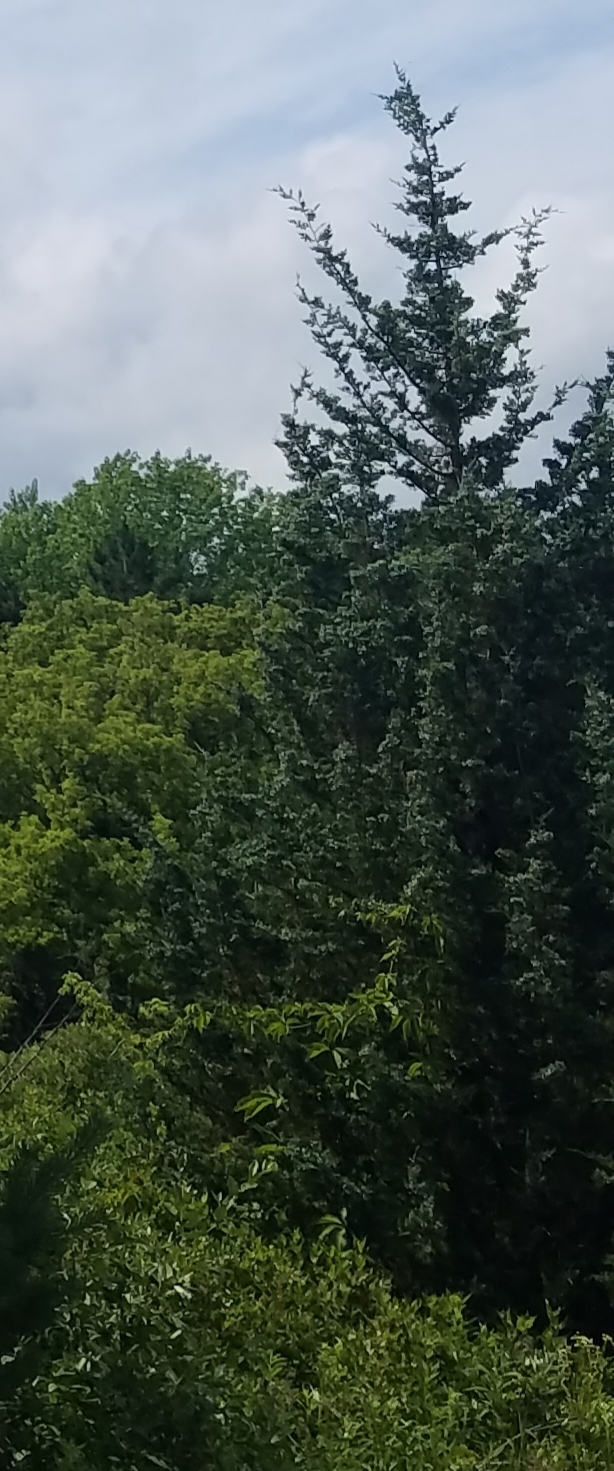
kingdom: Plantae
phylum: Tracheophyta
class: Pinopsida
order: Pinales
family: Cupressaceae
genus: Juniperus
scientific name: Juniperus virginiana
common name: Red juniper
